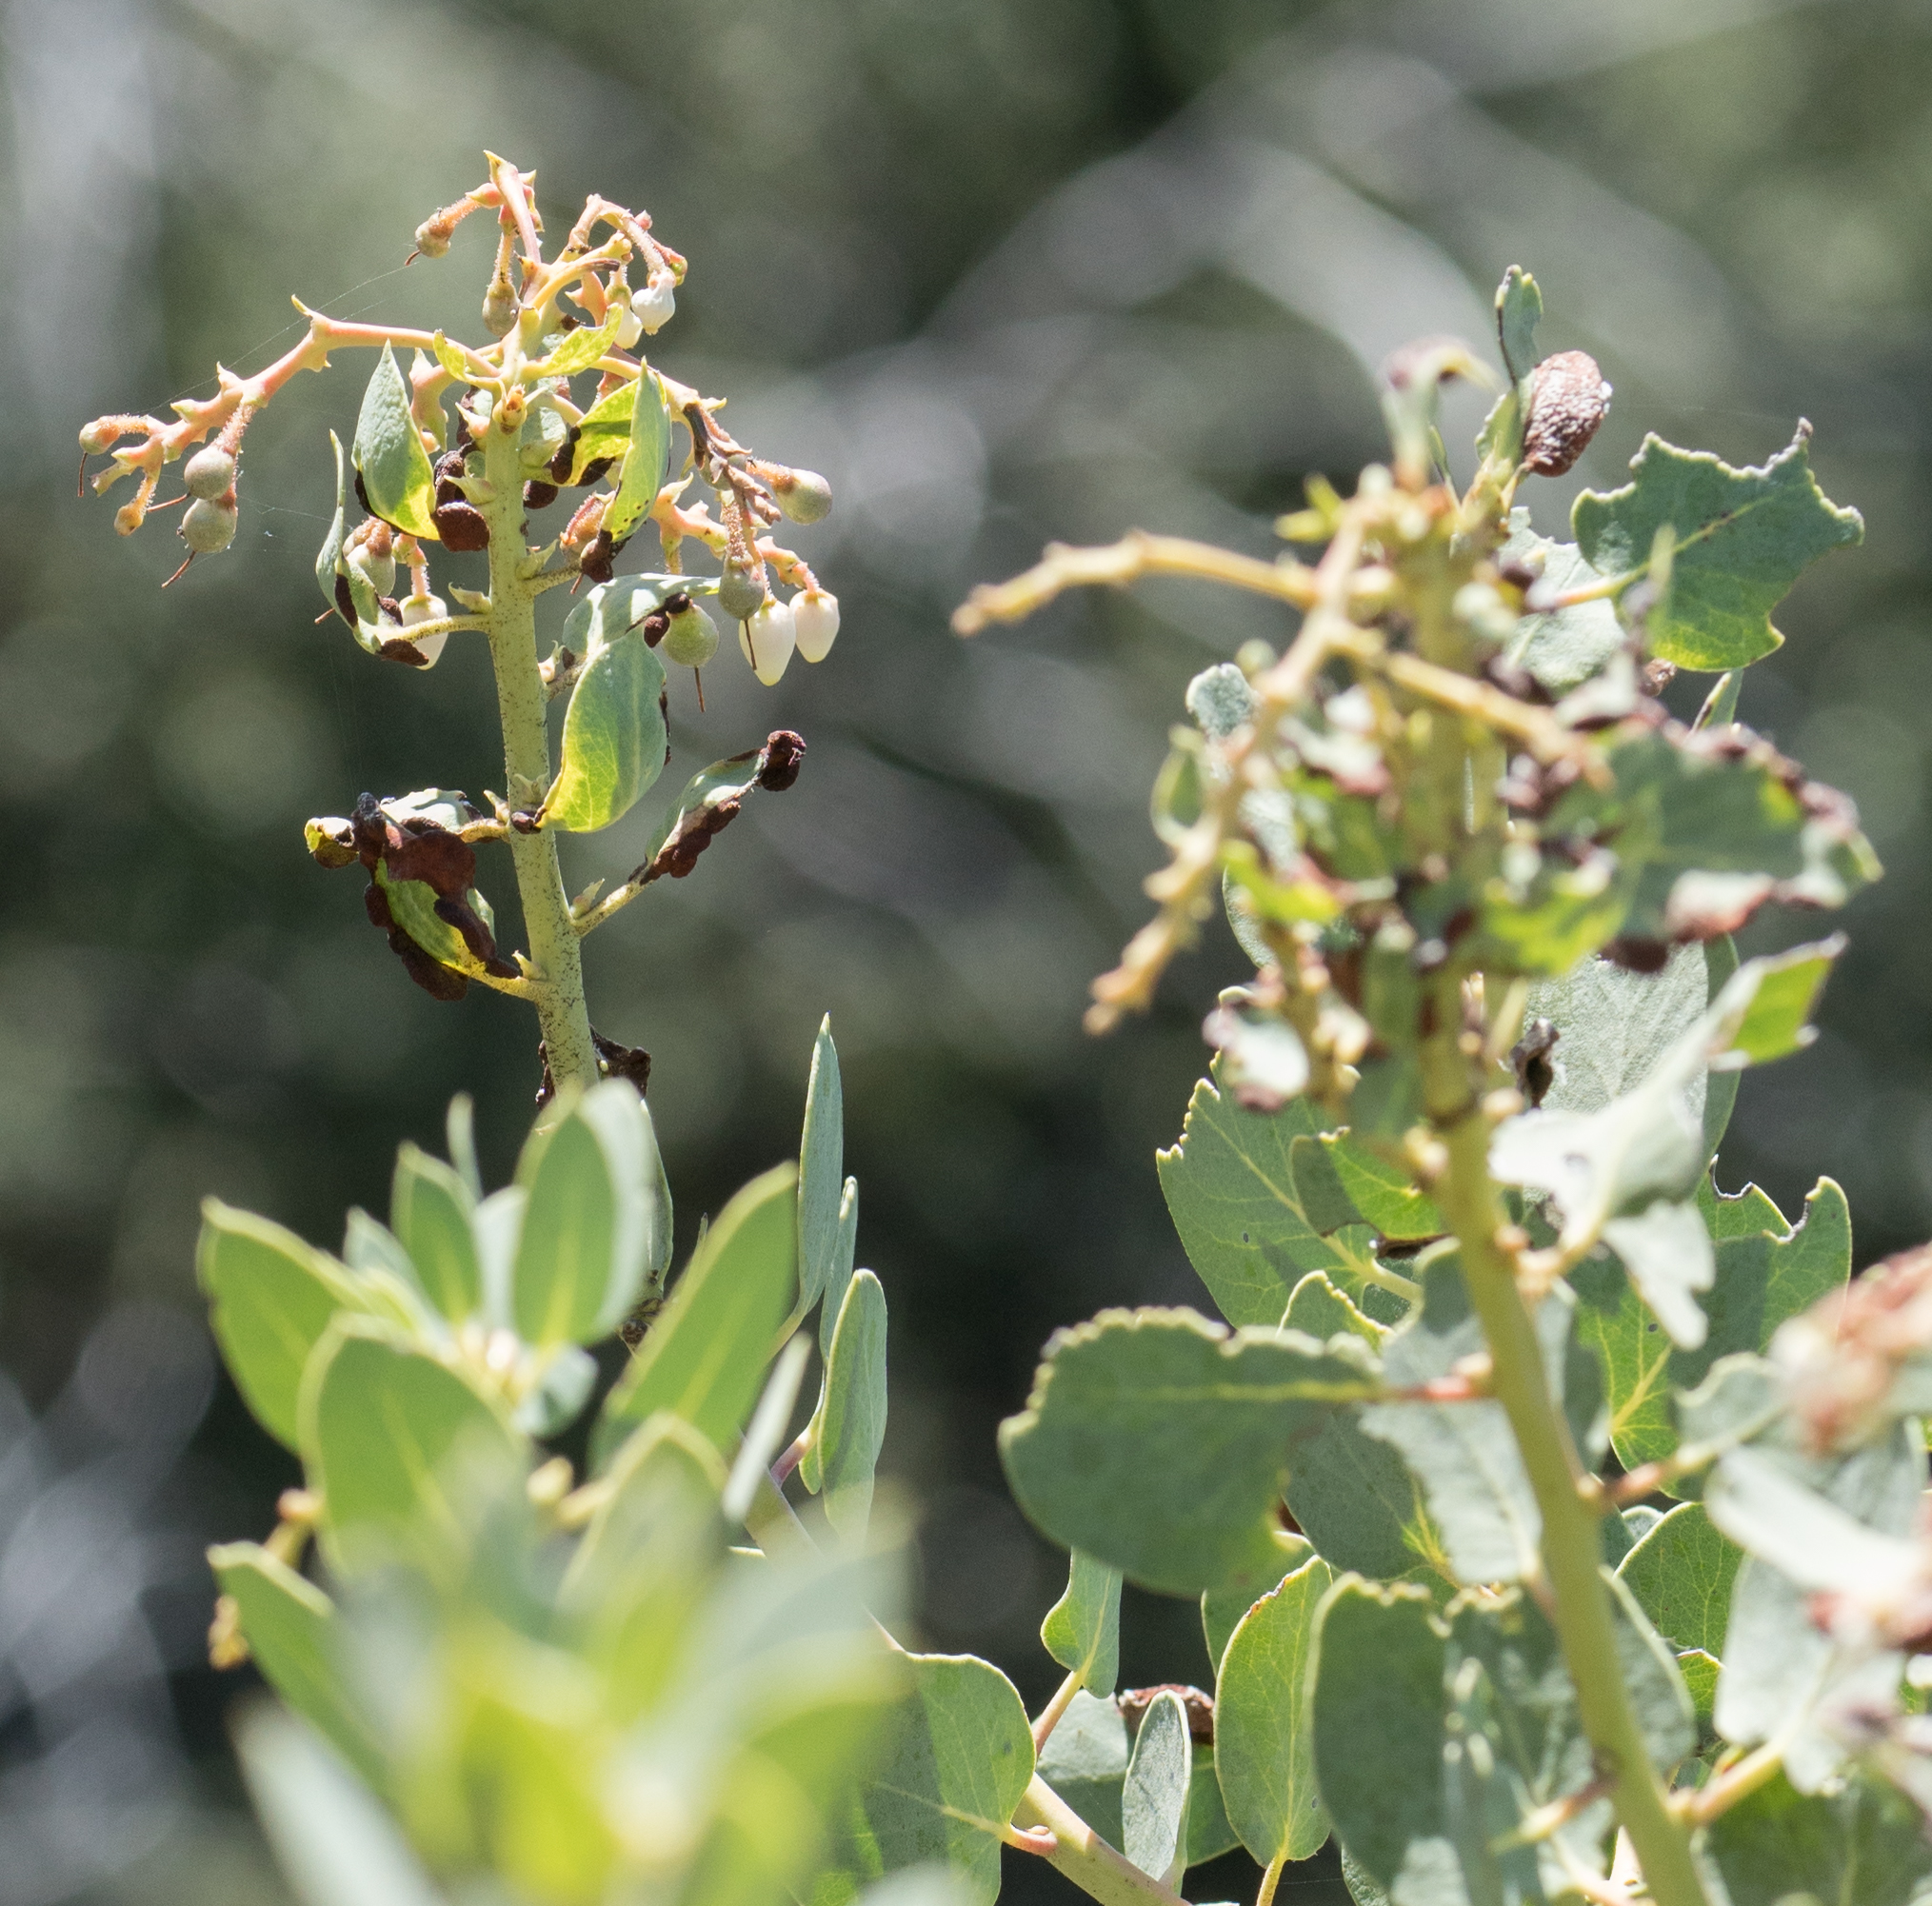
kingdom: Plantae
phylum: Tracheophyta
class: Magnoliopsida
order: Ericales
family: Ericaceae
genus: Arctostaphylos
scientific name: Arctostaphylos glauca
